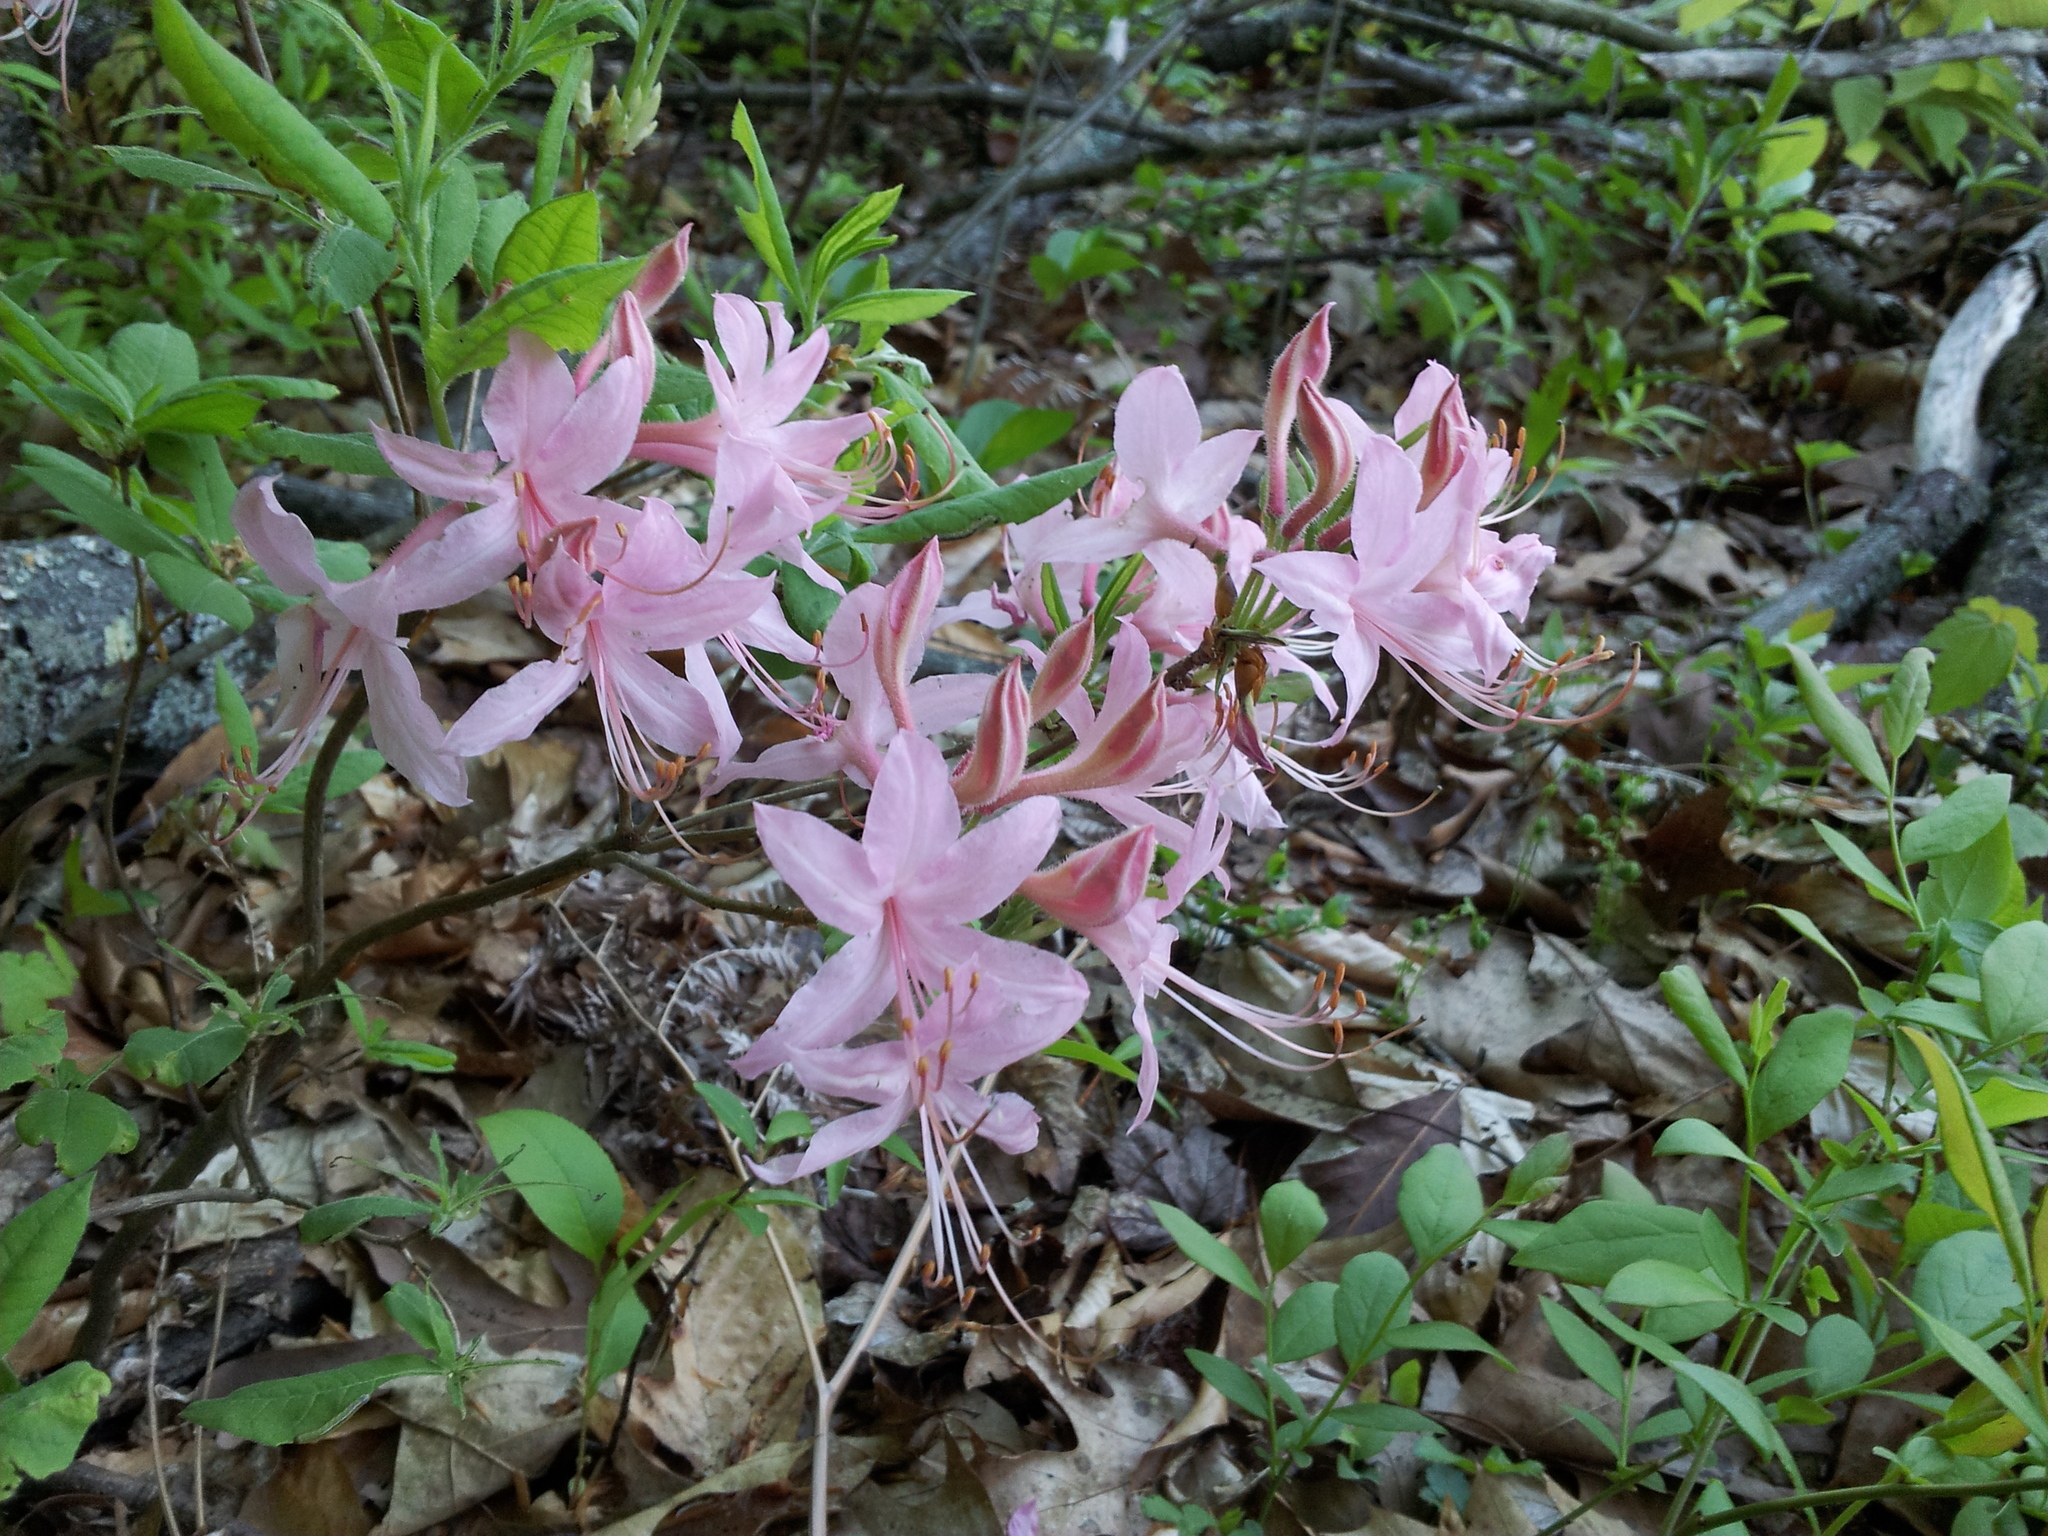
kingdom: Plantae
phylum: Tracheophyta
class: Magnoliopsida
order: Ericales
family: Ericaceae
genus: Rhododendron
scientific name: Rhododendron roseum
